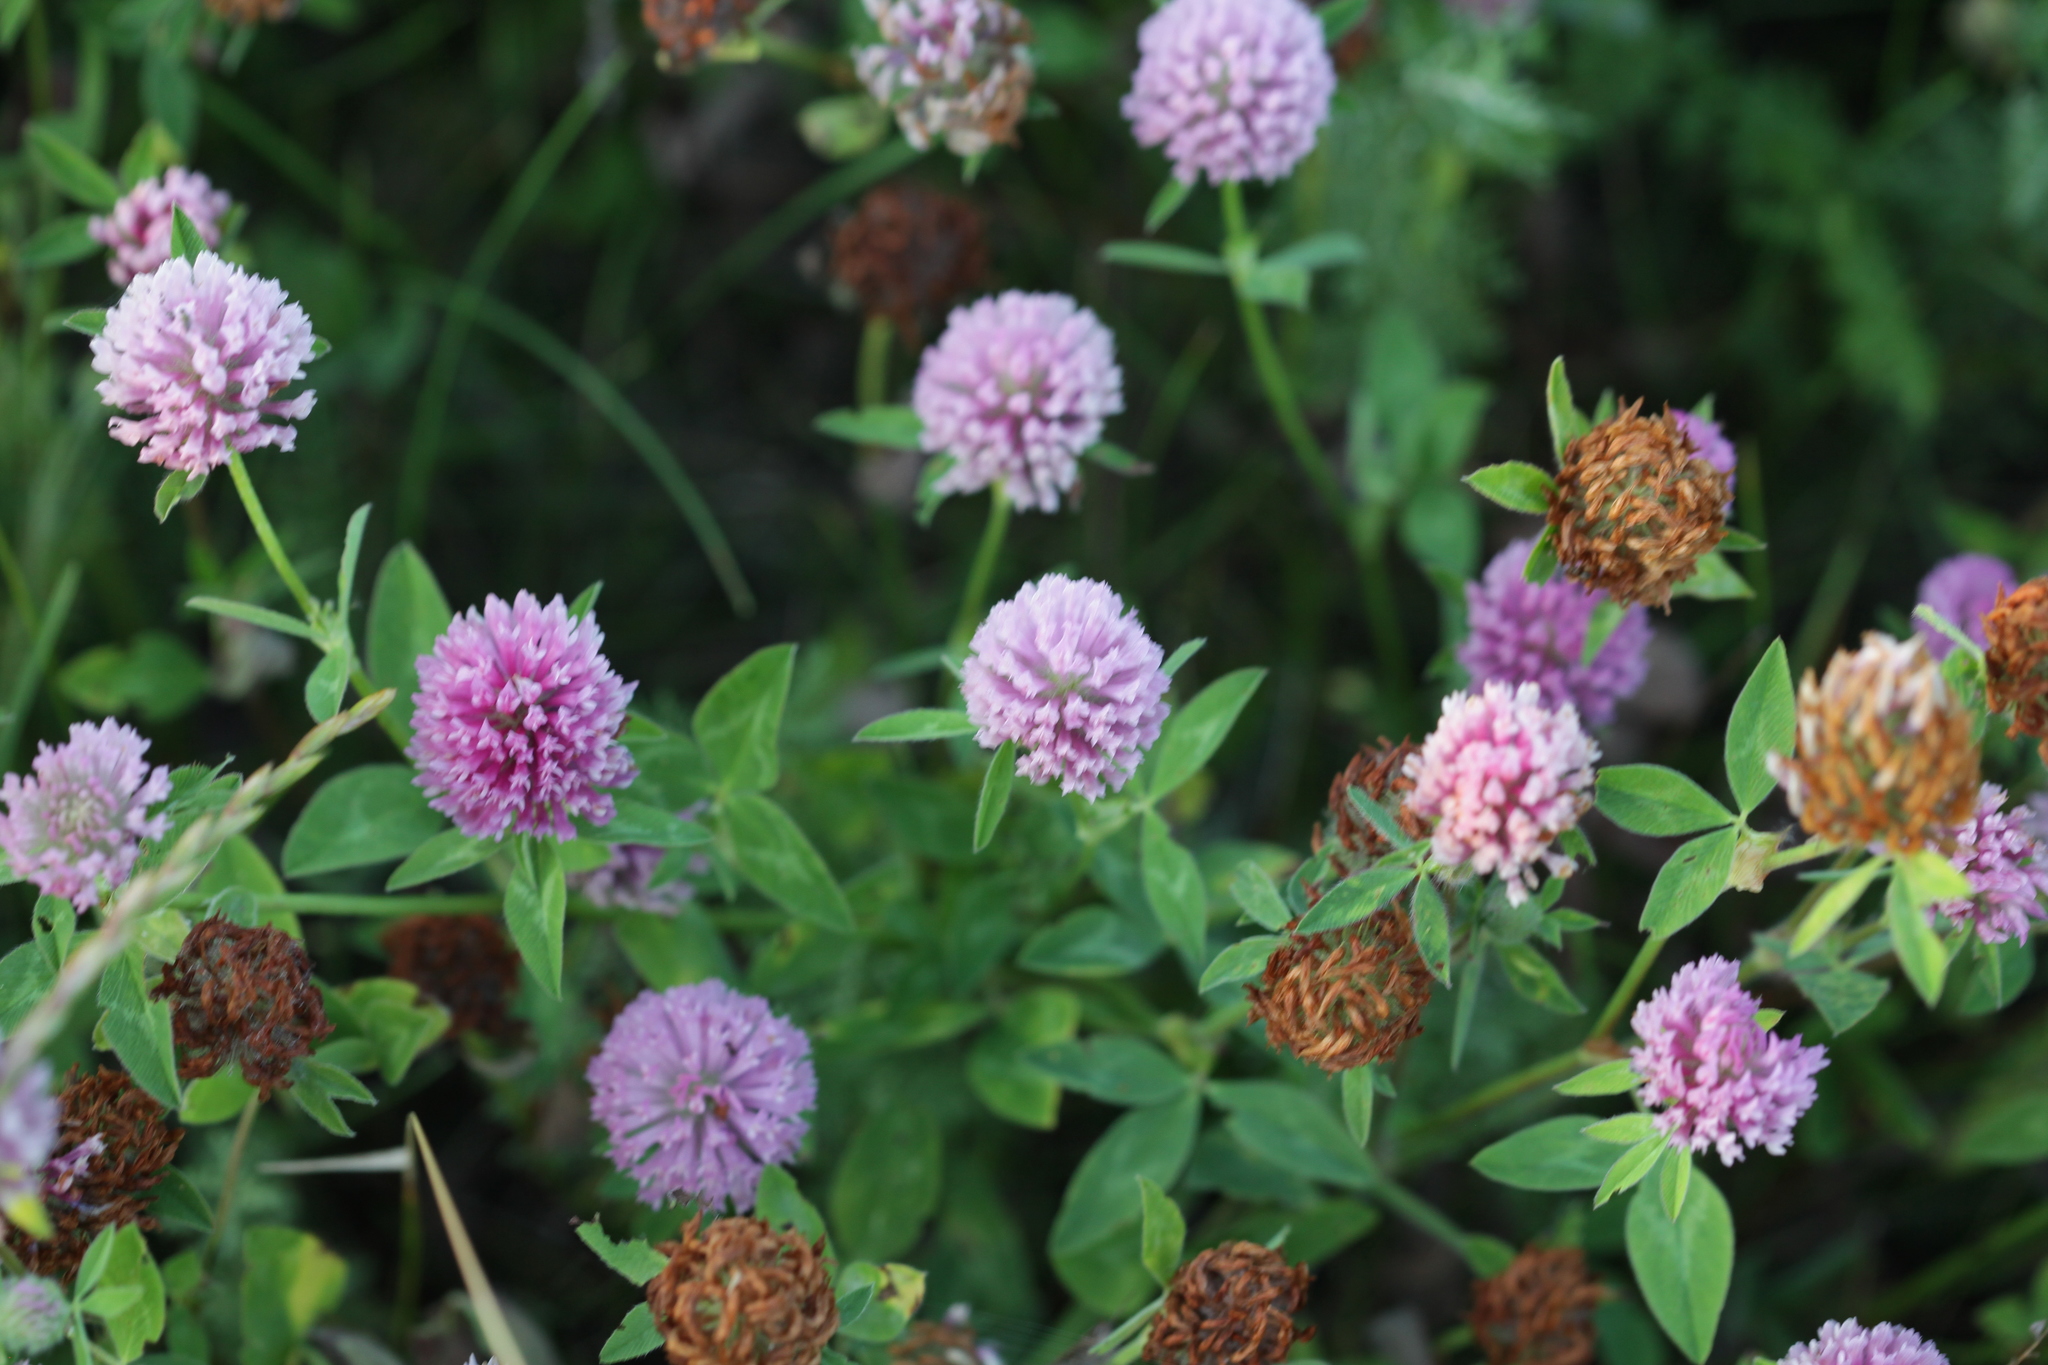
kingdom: Plantae
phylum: Tracheophyta
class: Magnoliopsida
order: Fabales
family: Fabaceae
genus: Trifolium
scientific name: Trifolium pratense
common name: Red clover
